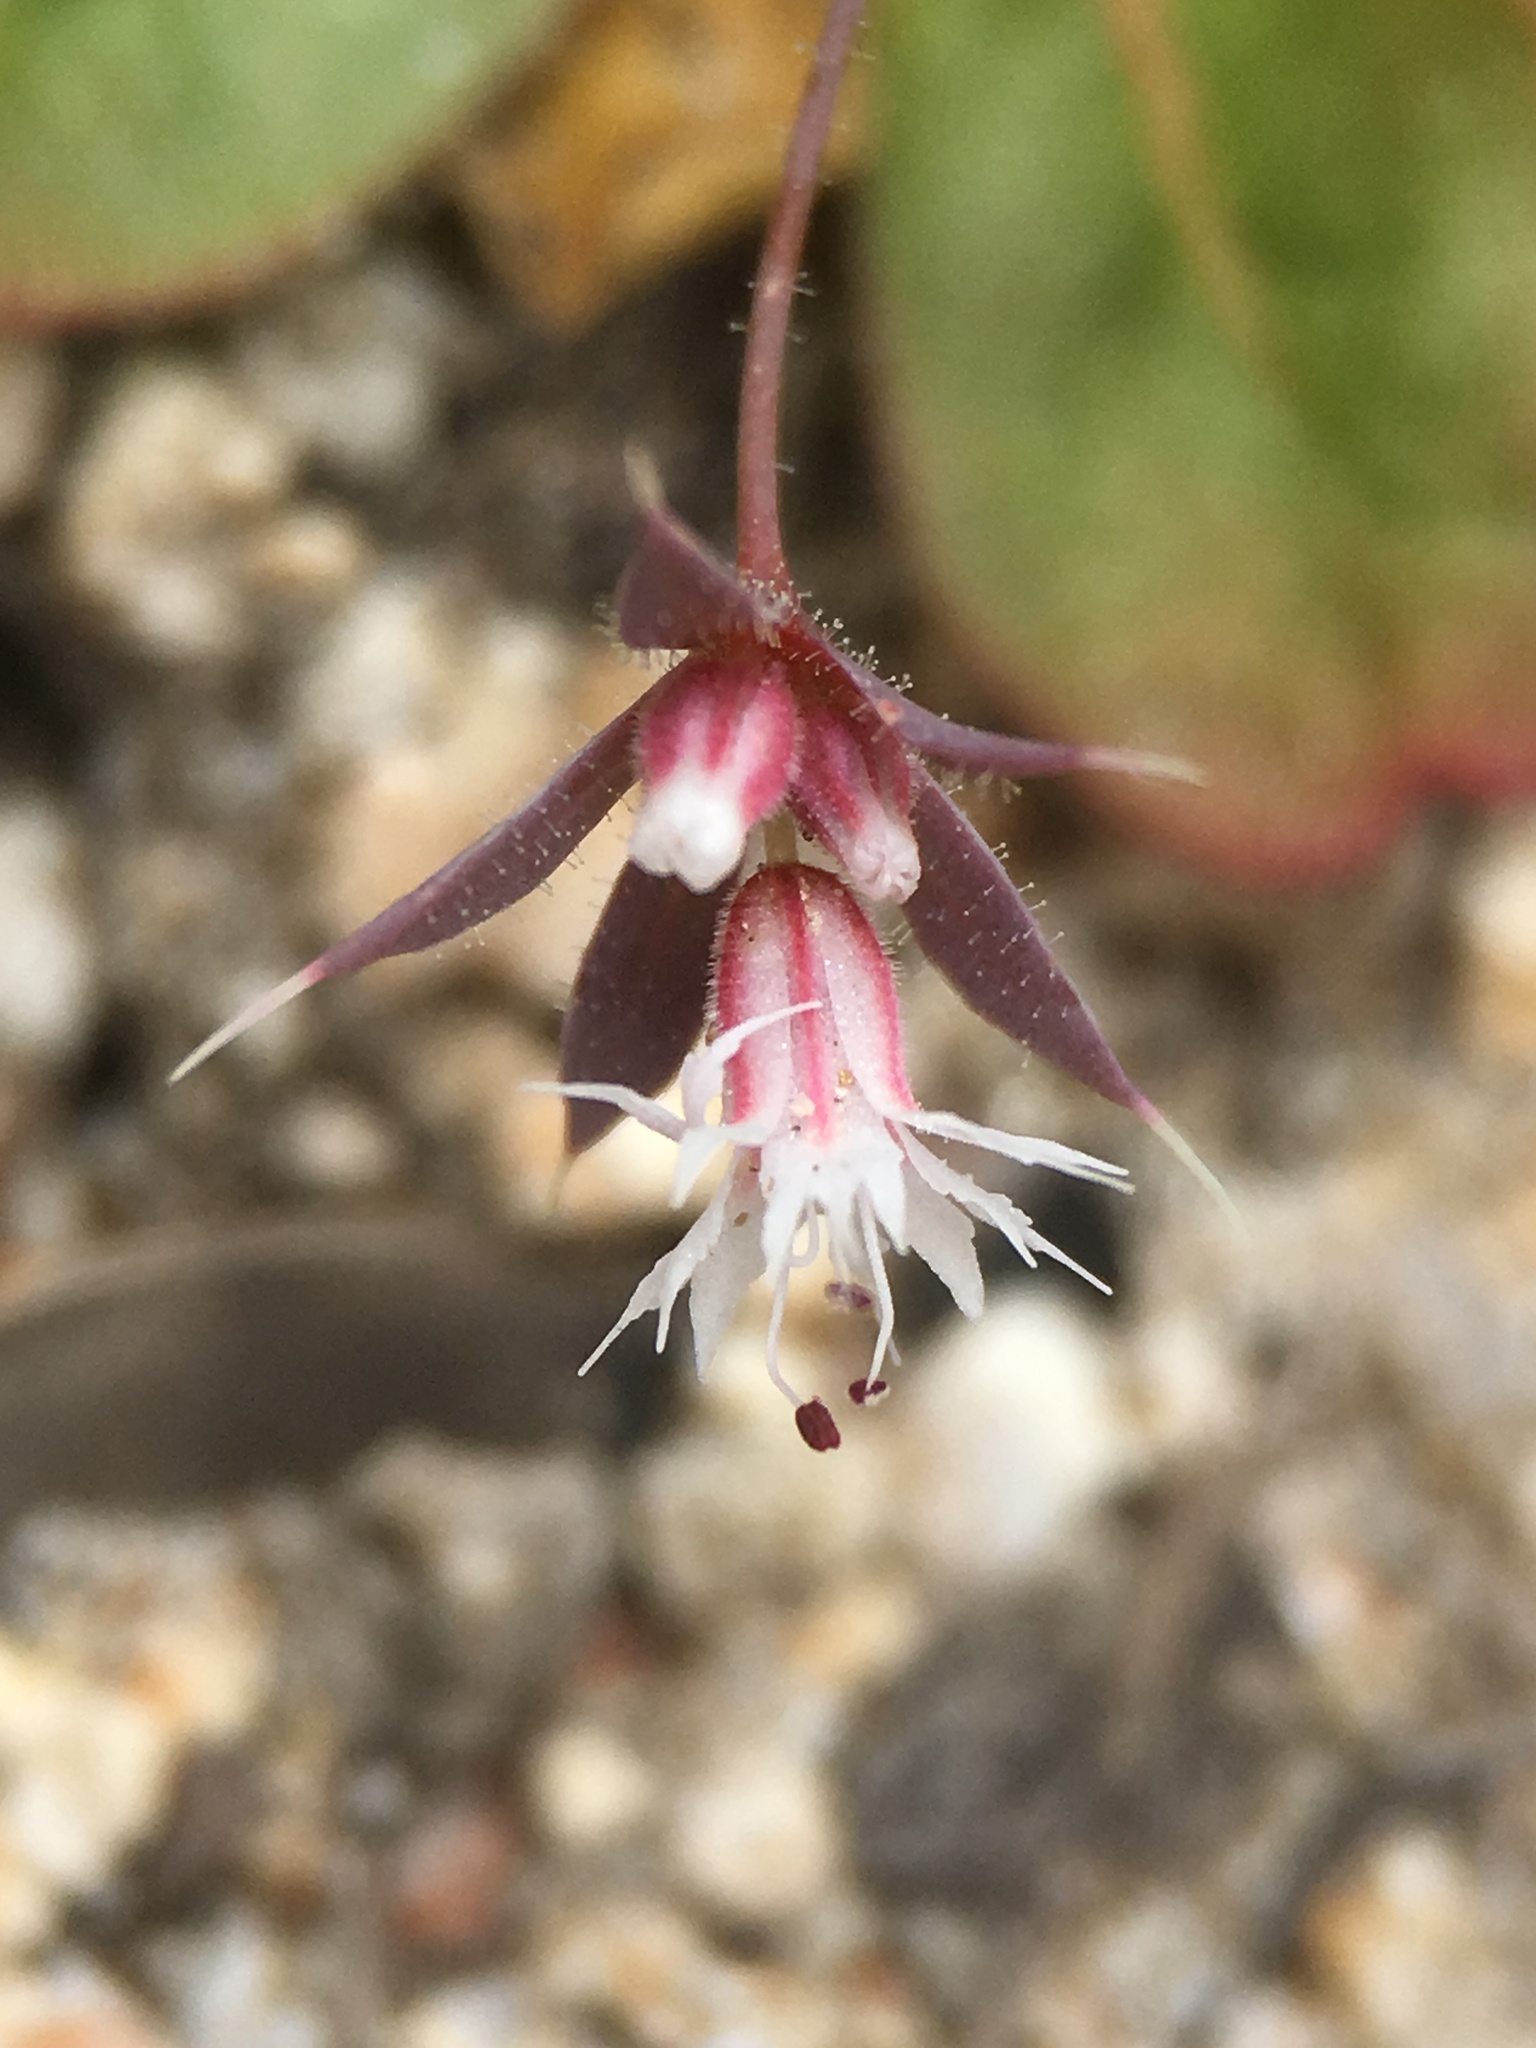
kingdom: Plantae
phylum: Tracheophyta
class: Magnoliopsida
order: Caryophyllales
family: Polygonaceae
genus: Sidotheca
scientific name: Sidotheca trilobata
